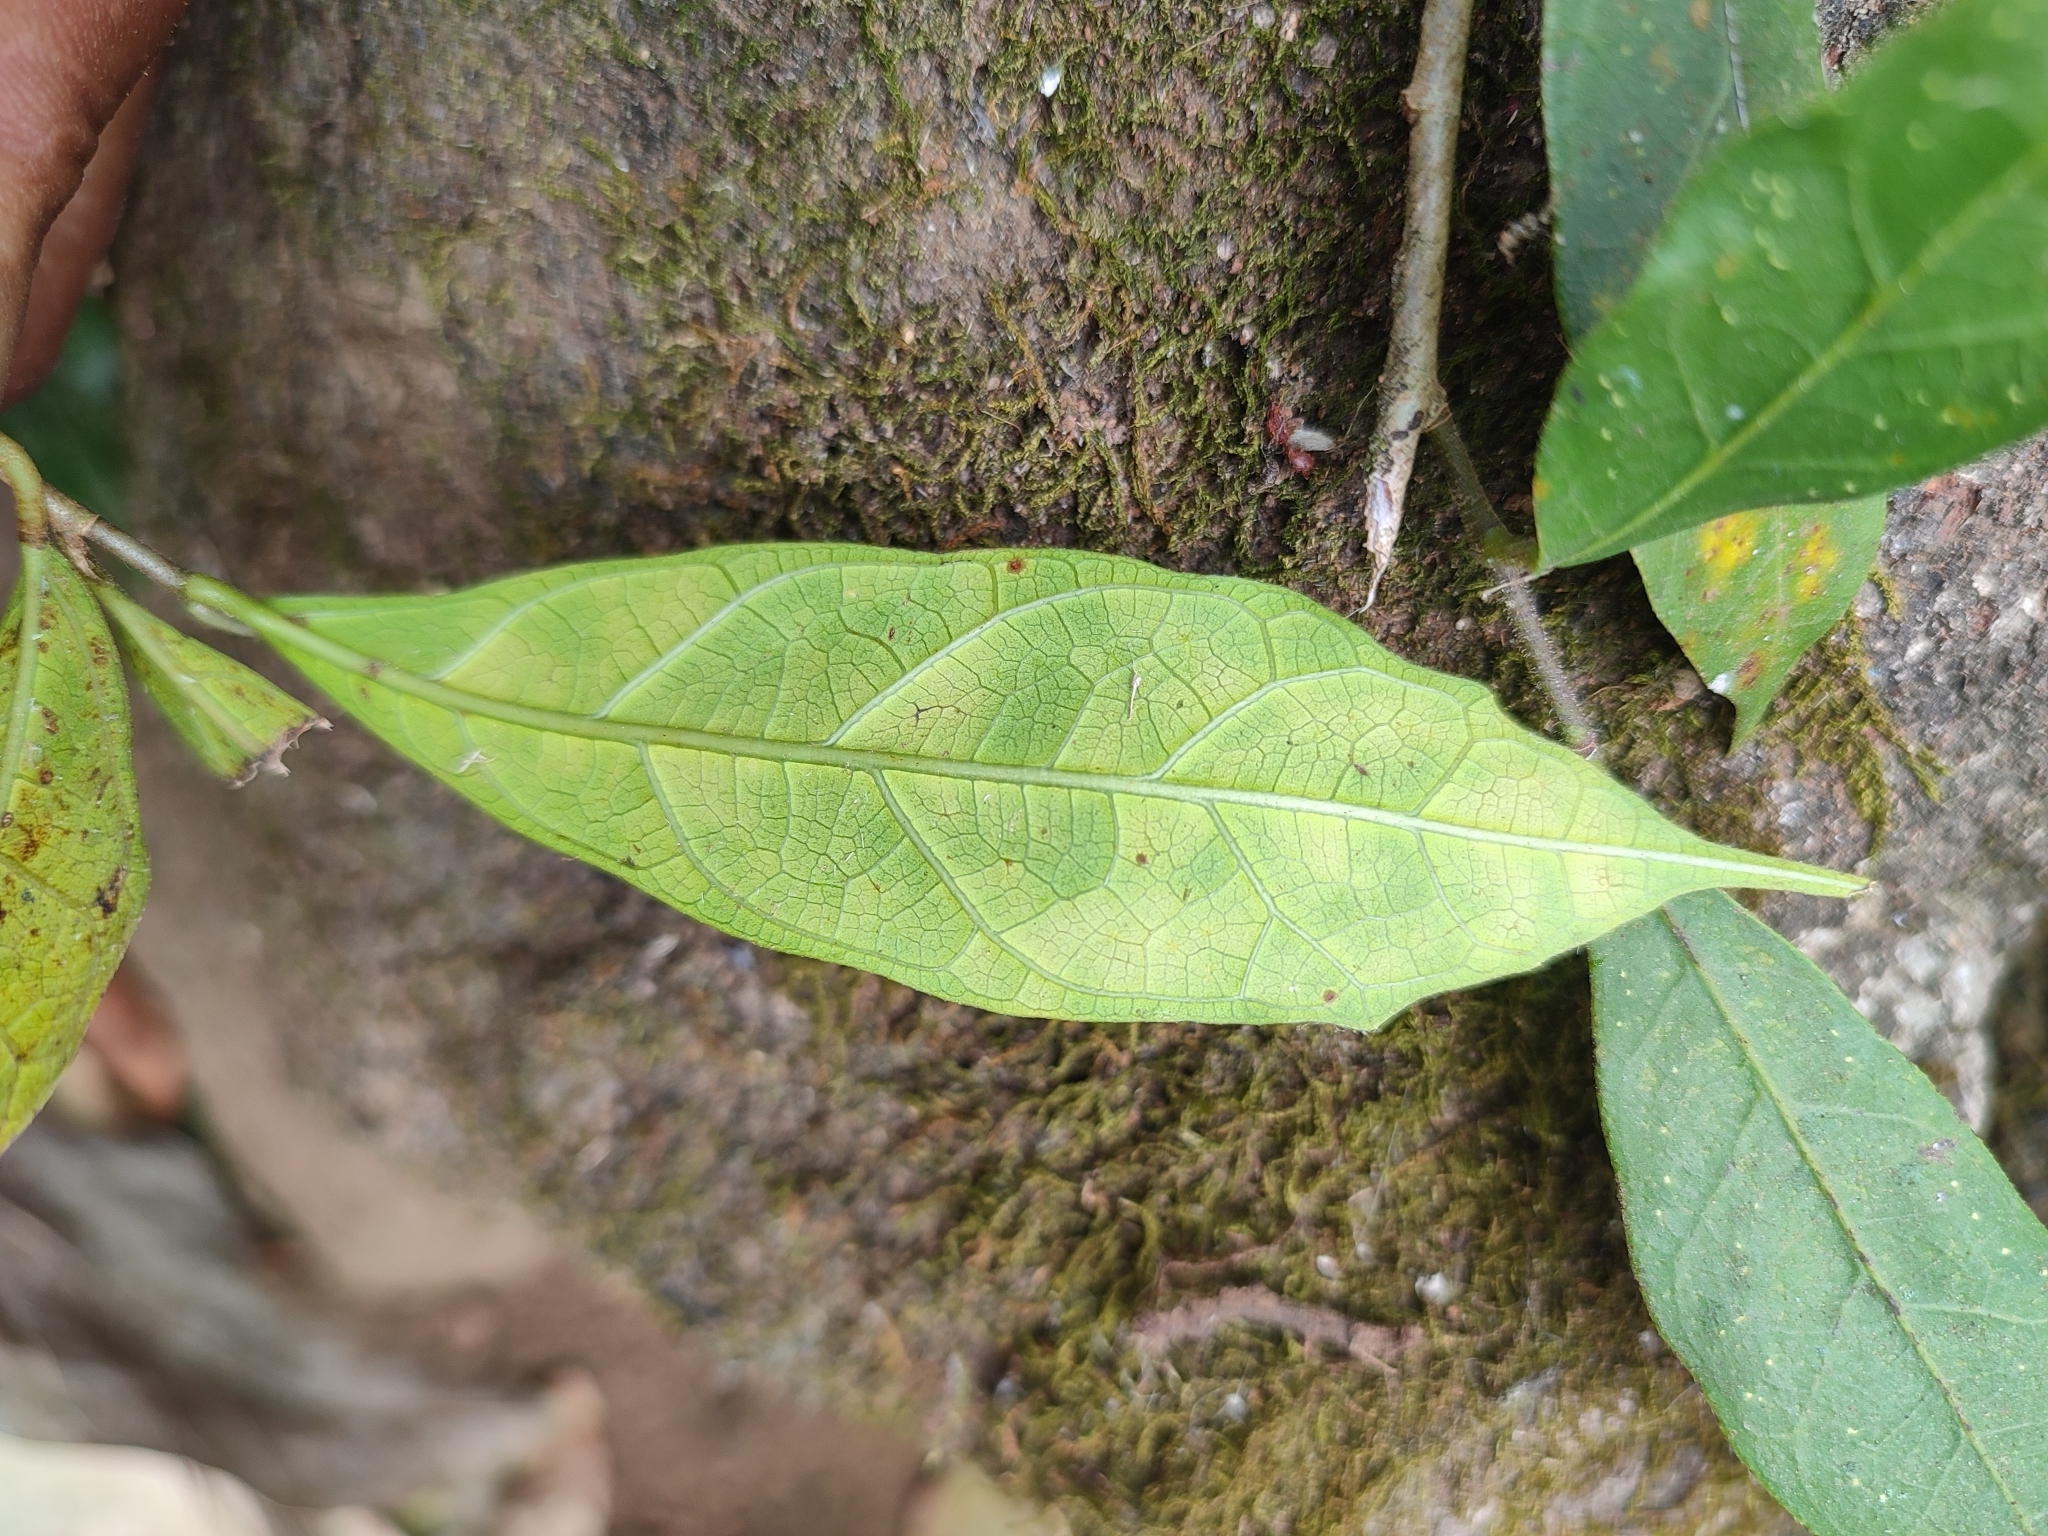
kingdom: Plantae
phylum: Tracheophyta
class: Magnoliopsida
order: Rosales
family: Moraceae
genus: Ficus
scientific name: Ficus tinctoria
